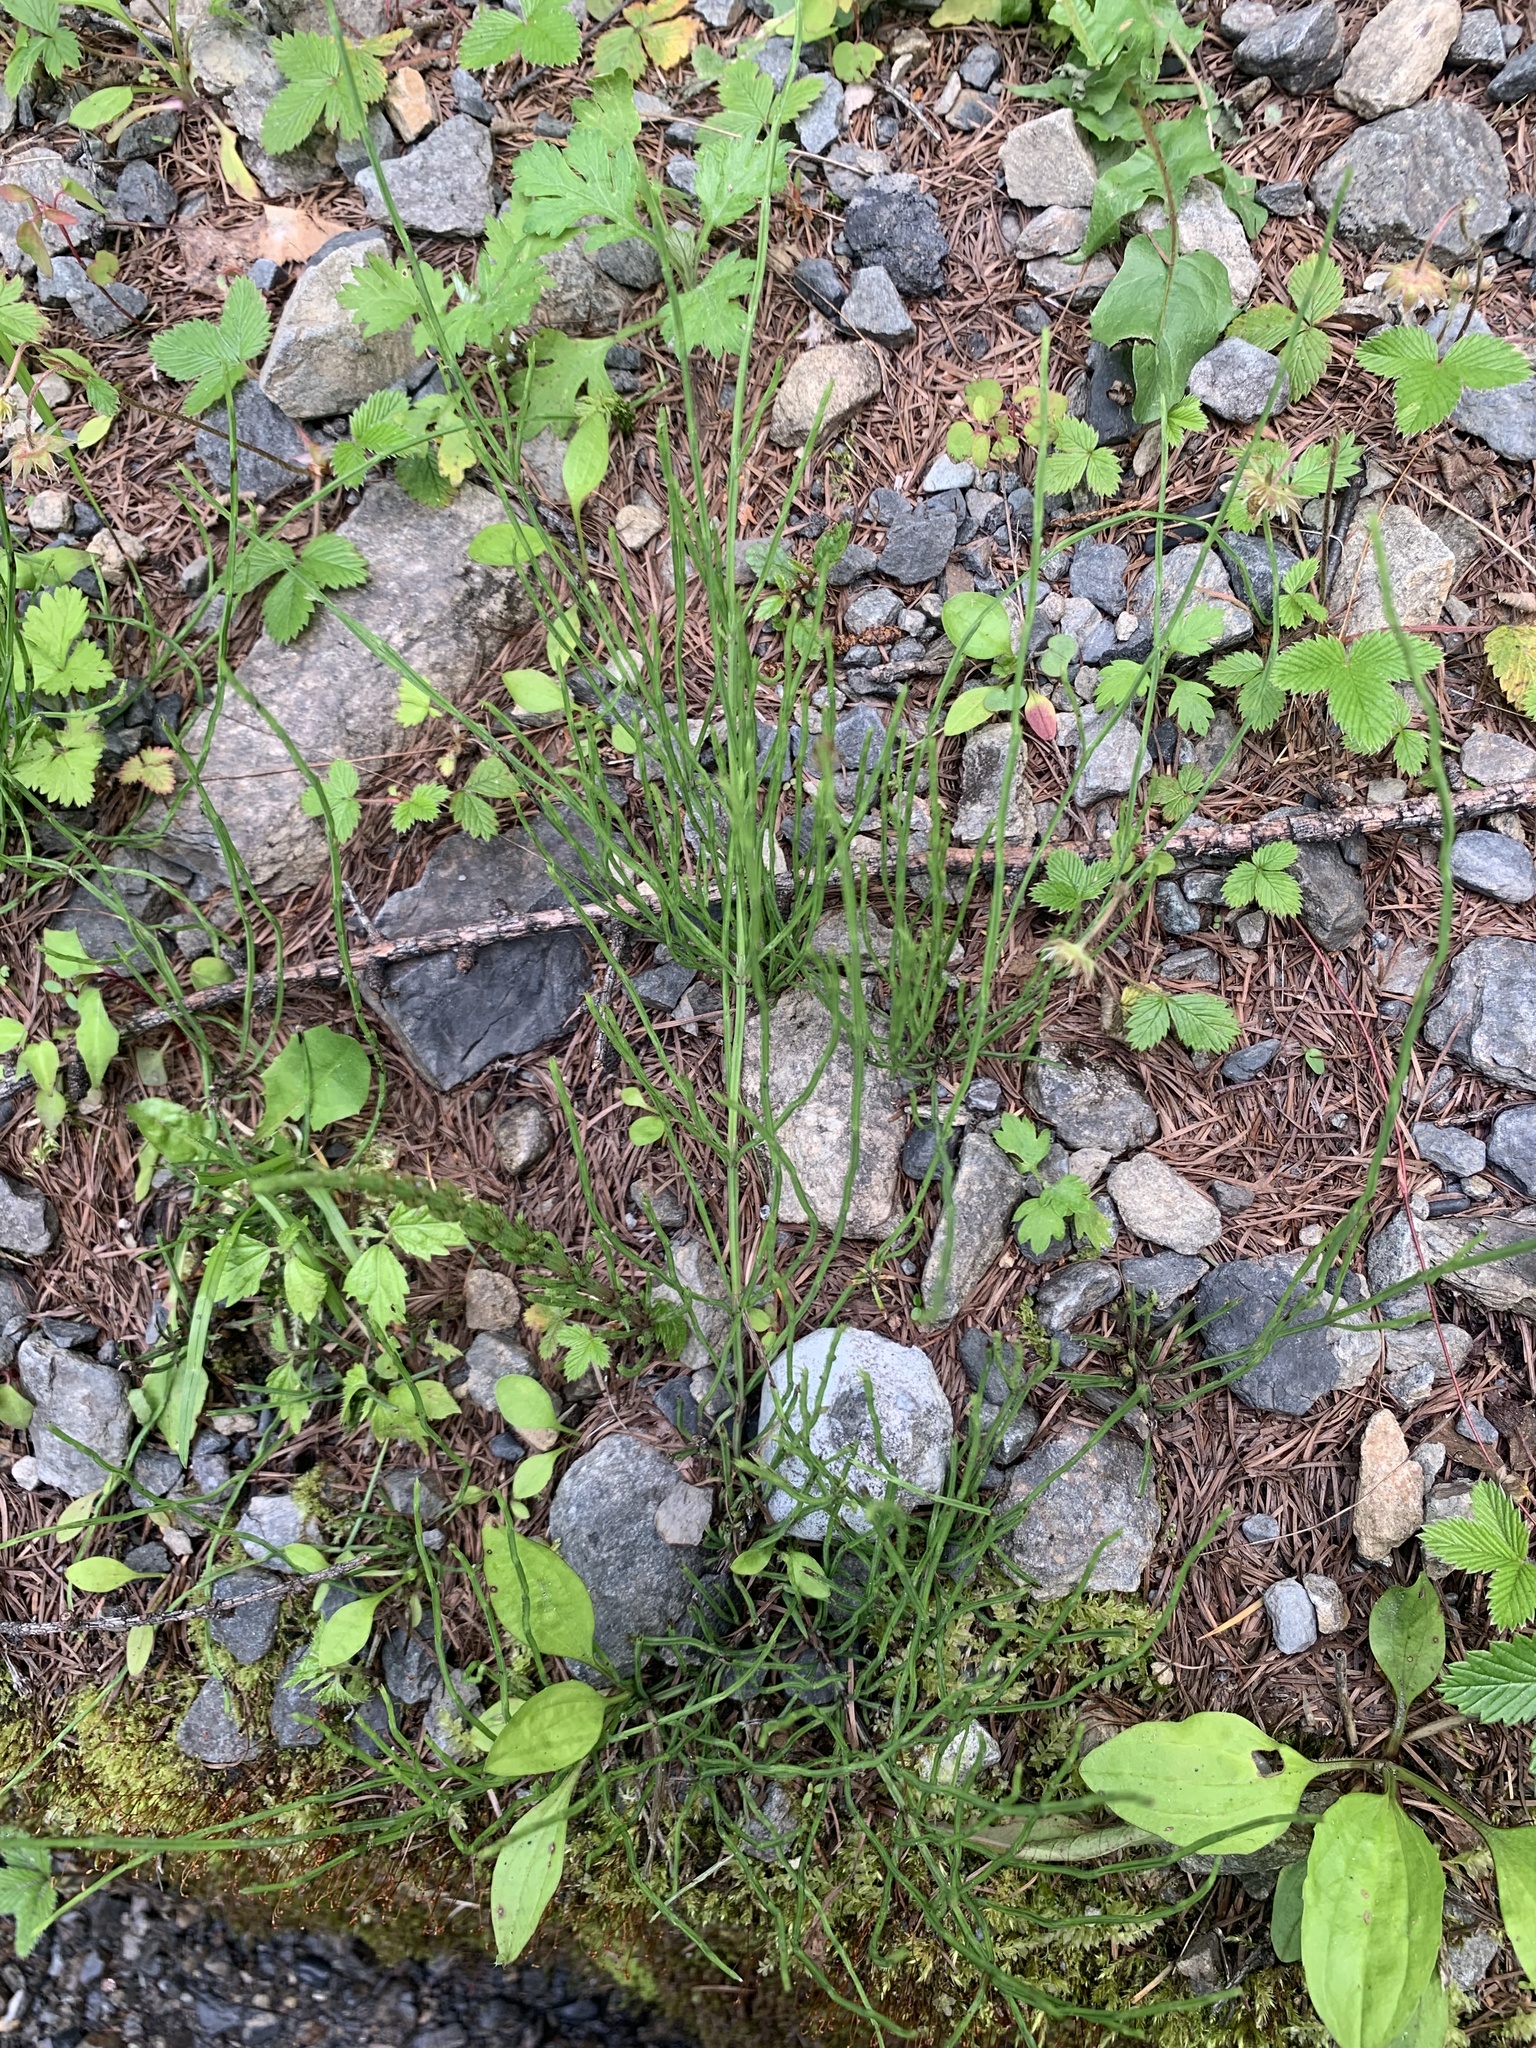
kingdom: Plantae
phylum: Tracheophyta
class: Polypodiopsida
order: Equisetales
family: Equisetaceae
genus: Equisetum
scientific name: Equisetum arvense
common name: Field horsetail
